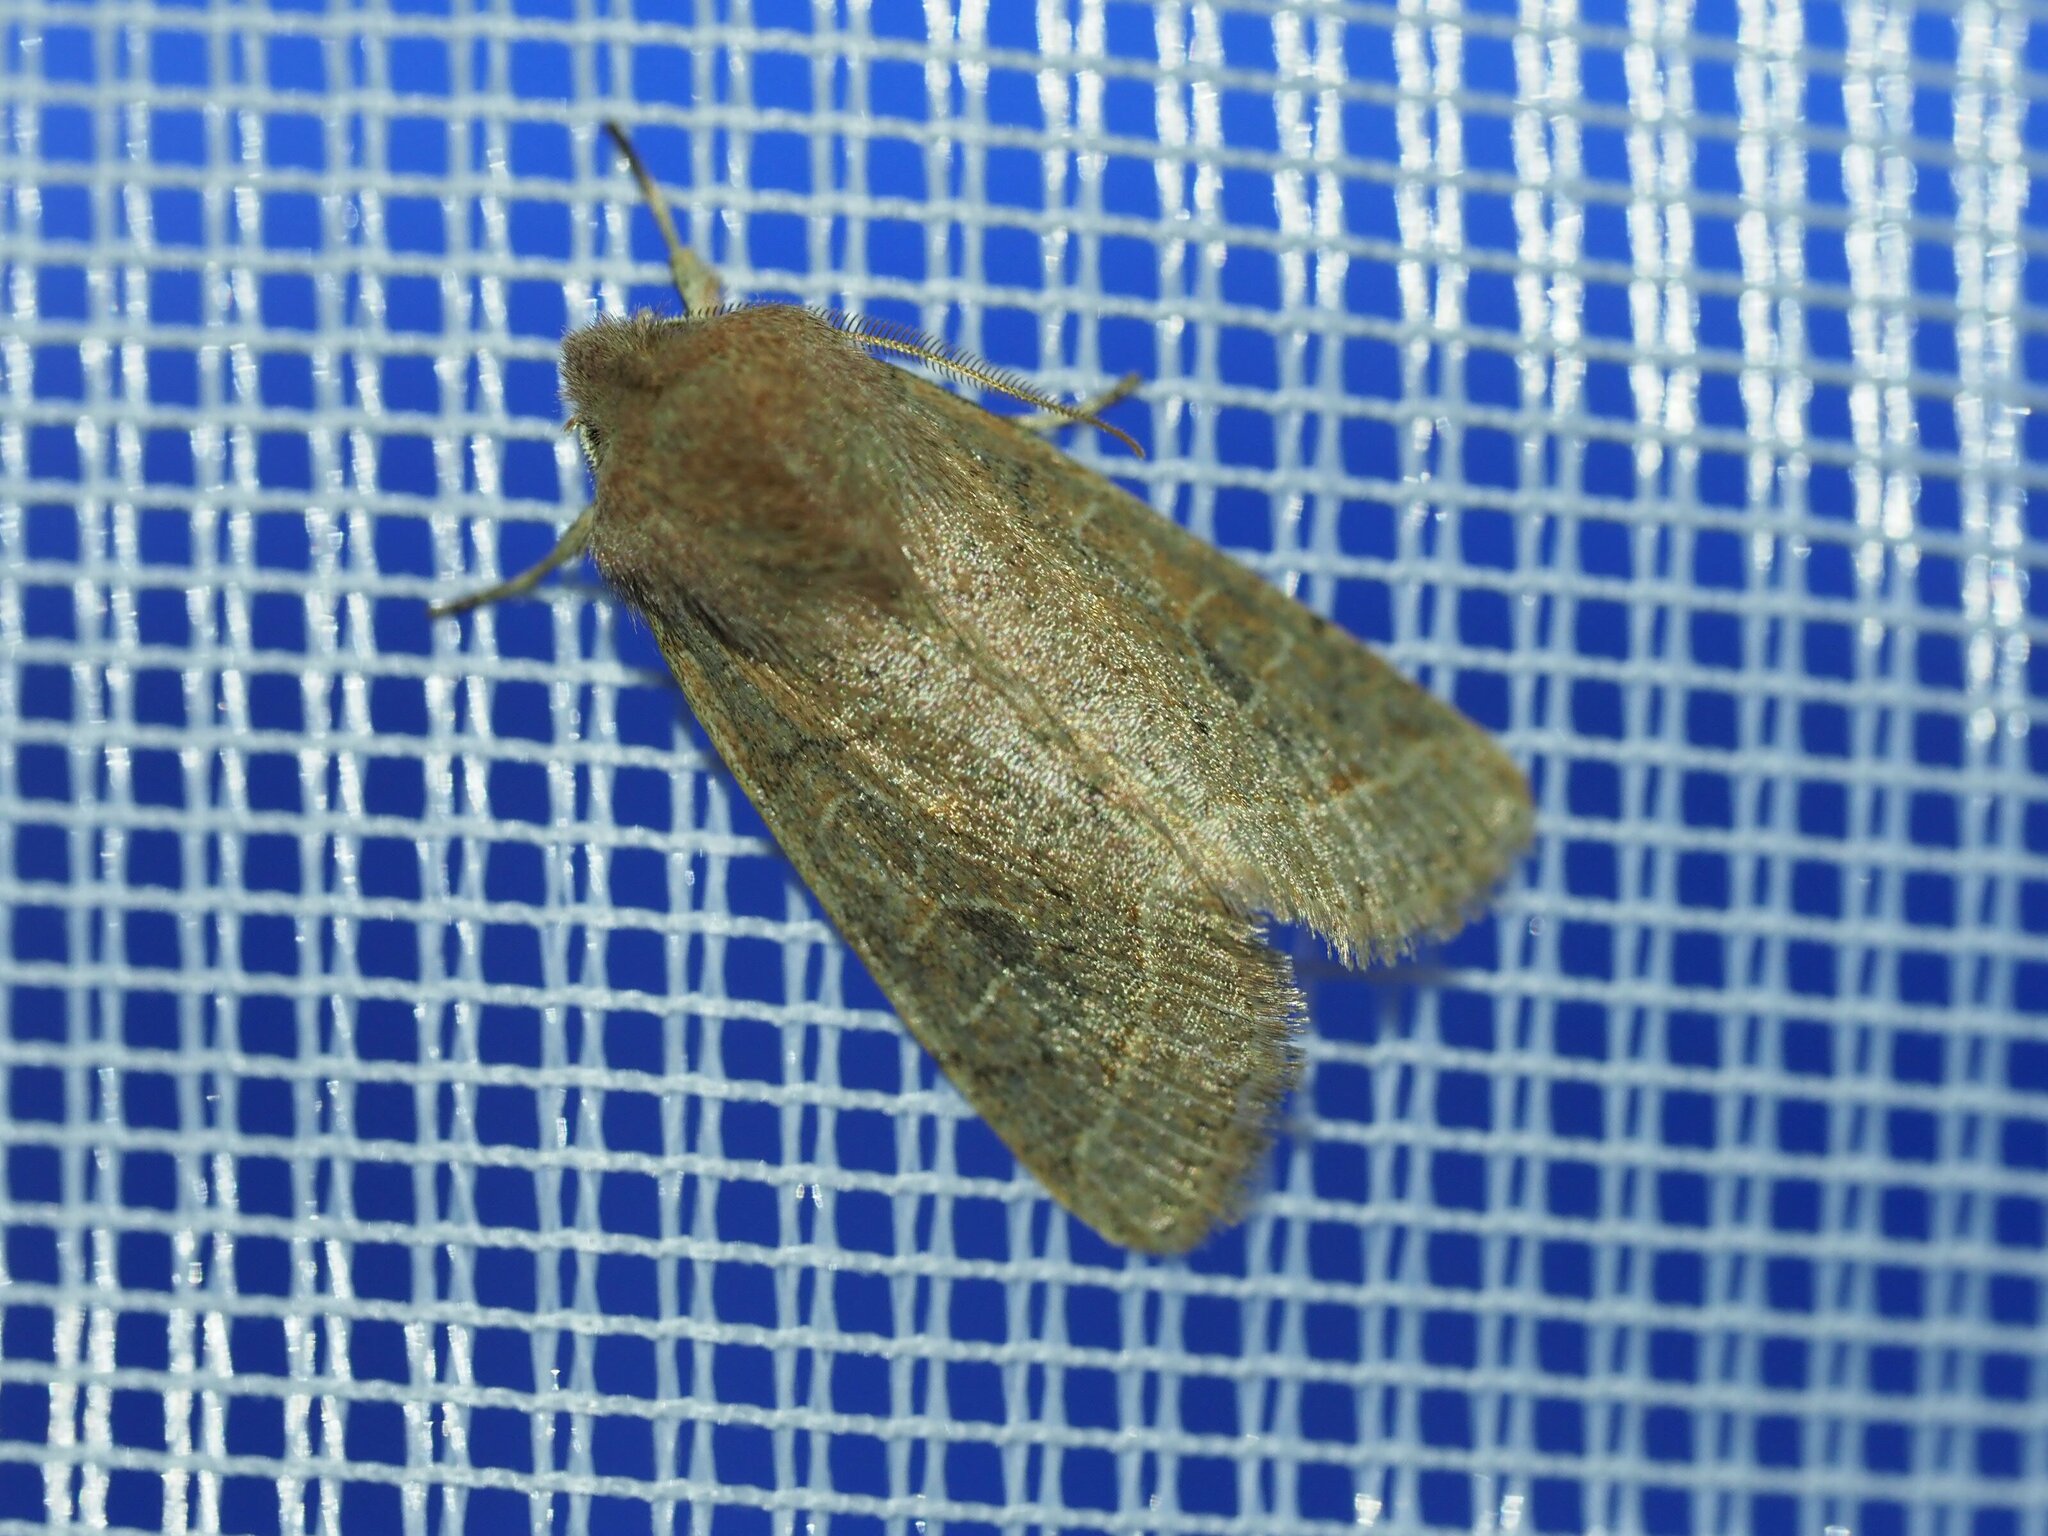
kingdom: Animalia
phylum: Arthropoda
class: Insecta
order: Lepidoptera
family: Noctuidae
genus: Orthosia
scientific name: Orthosia cerasi
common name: Common quaker
